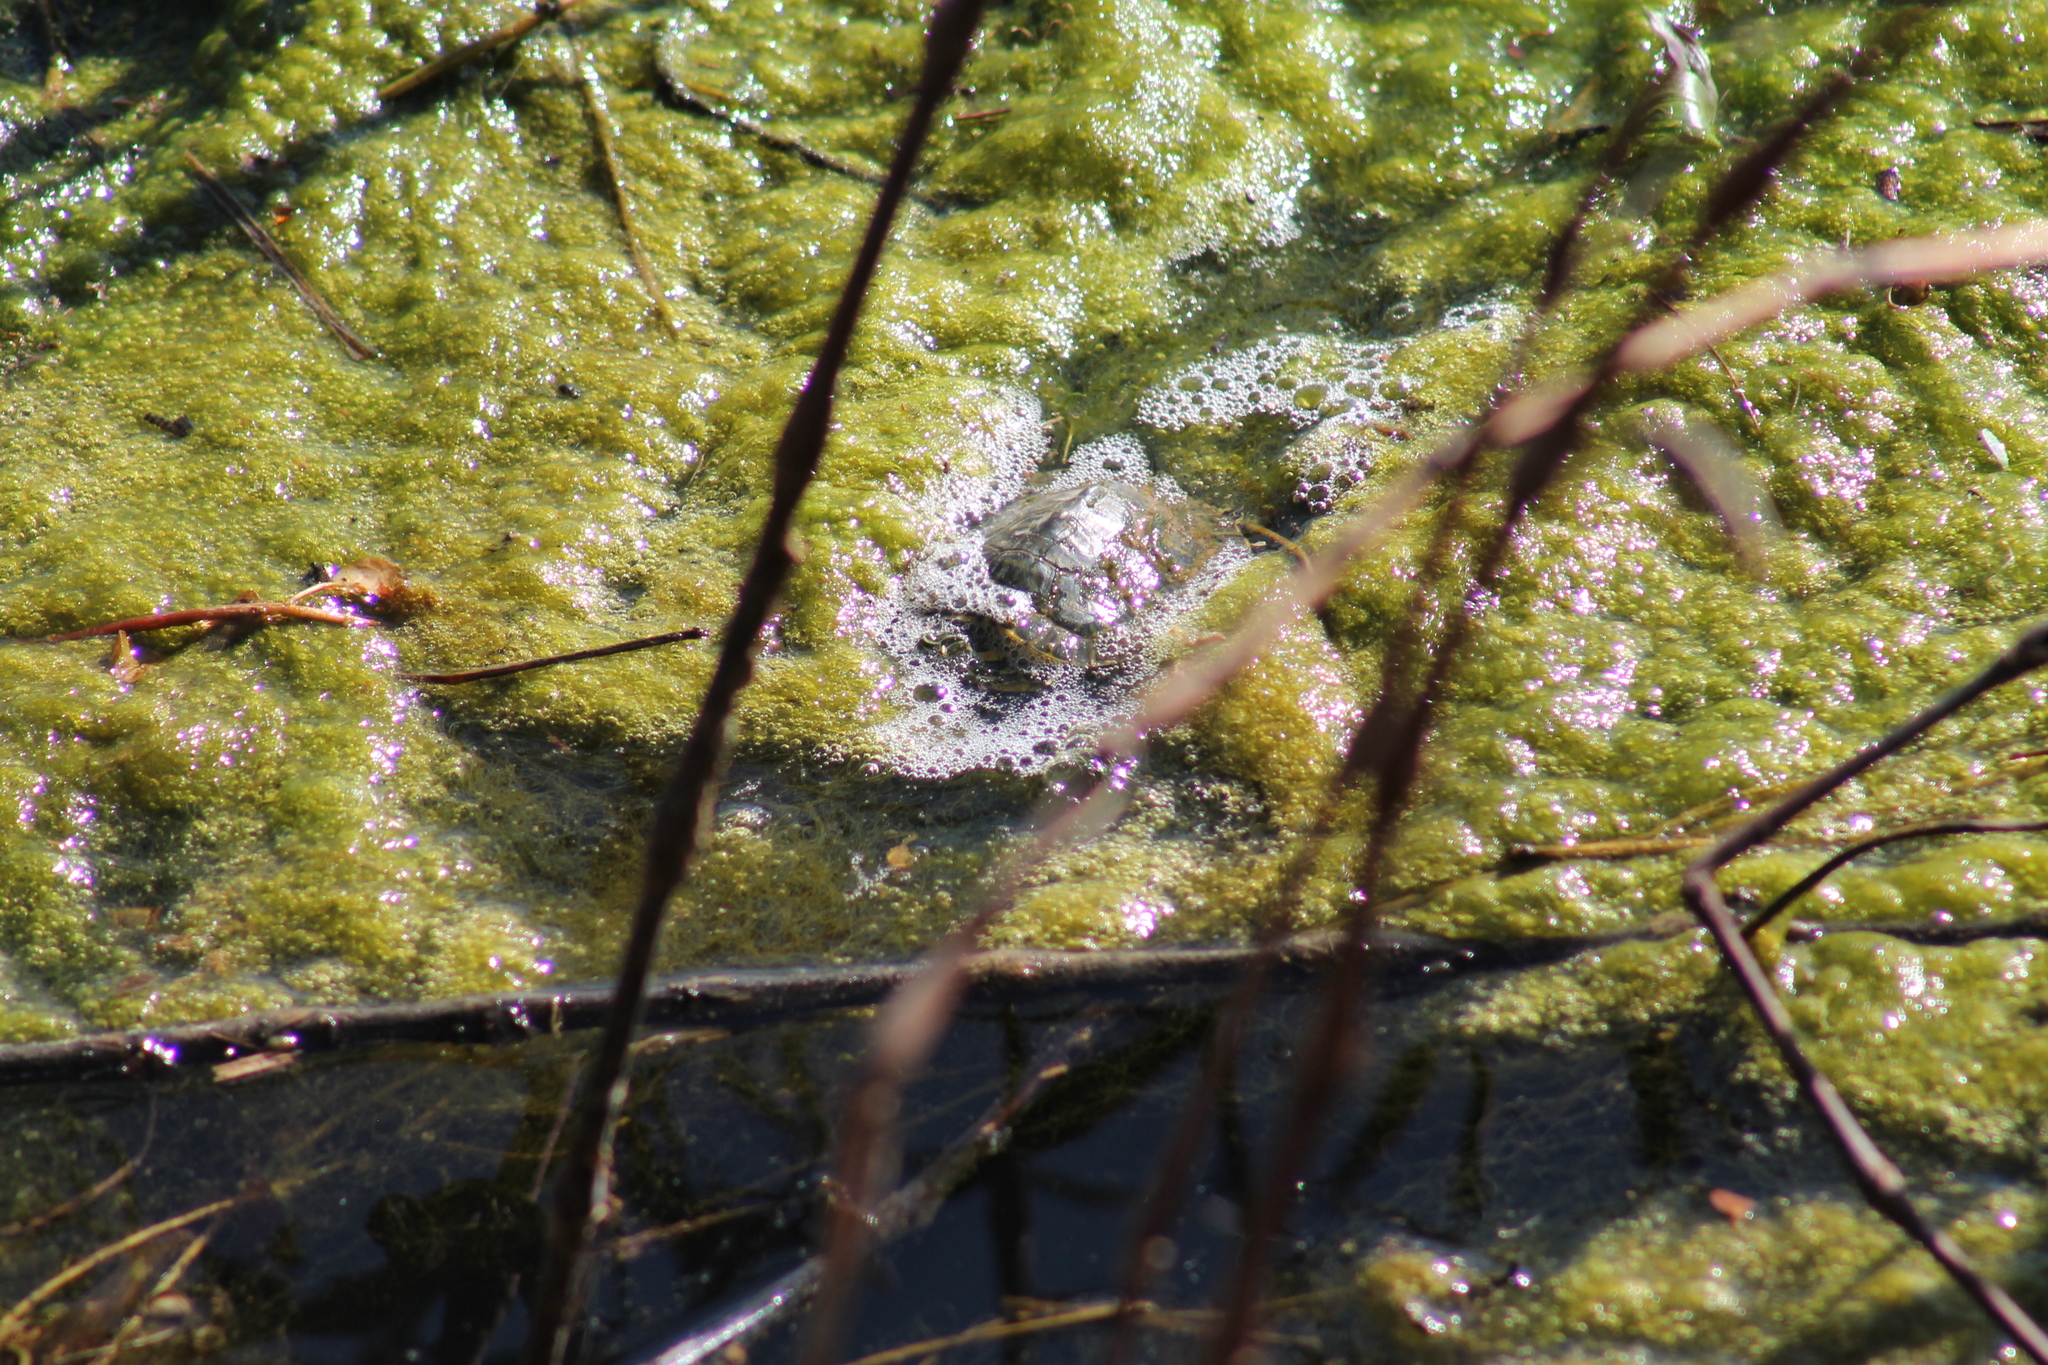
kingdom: Animalia
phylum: Chordata
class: Testudines
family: Emydidae
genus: Trachemys
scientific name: Trachemys scripta
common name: Slider
